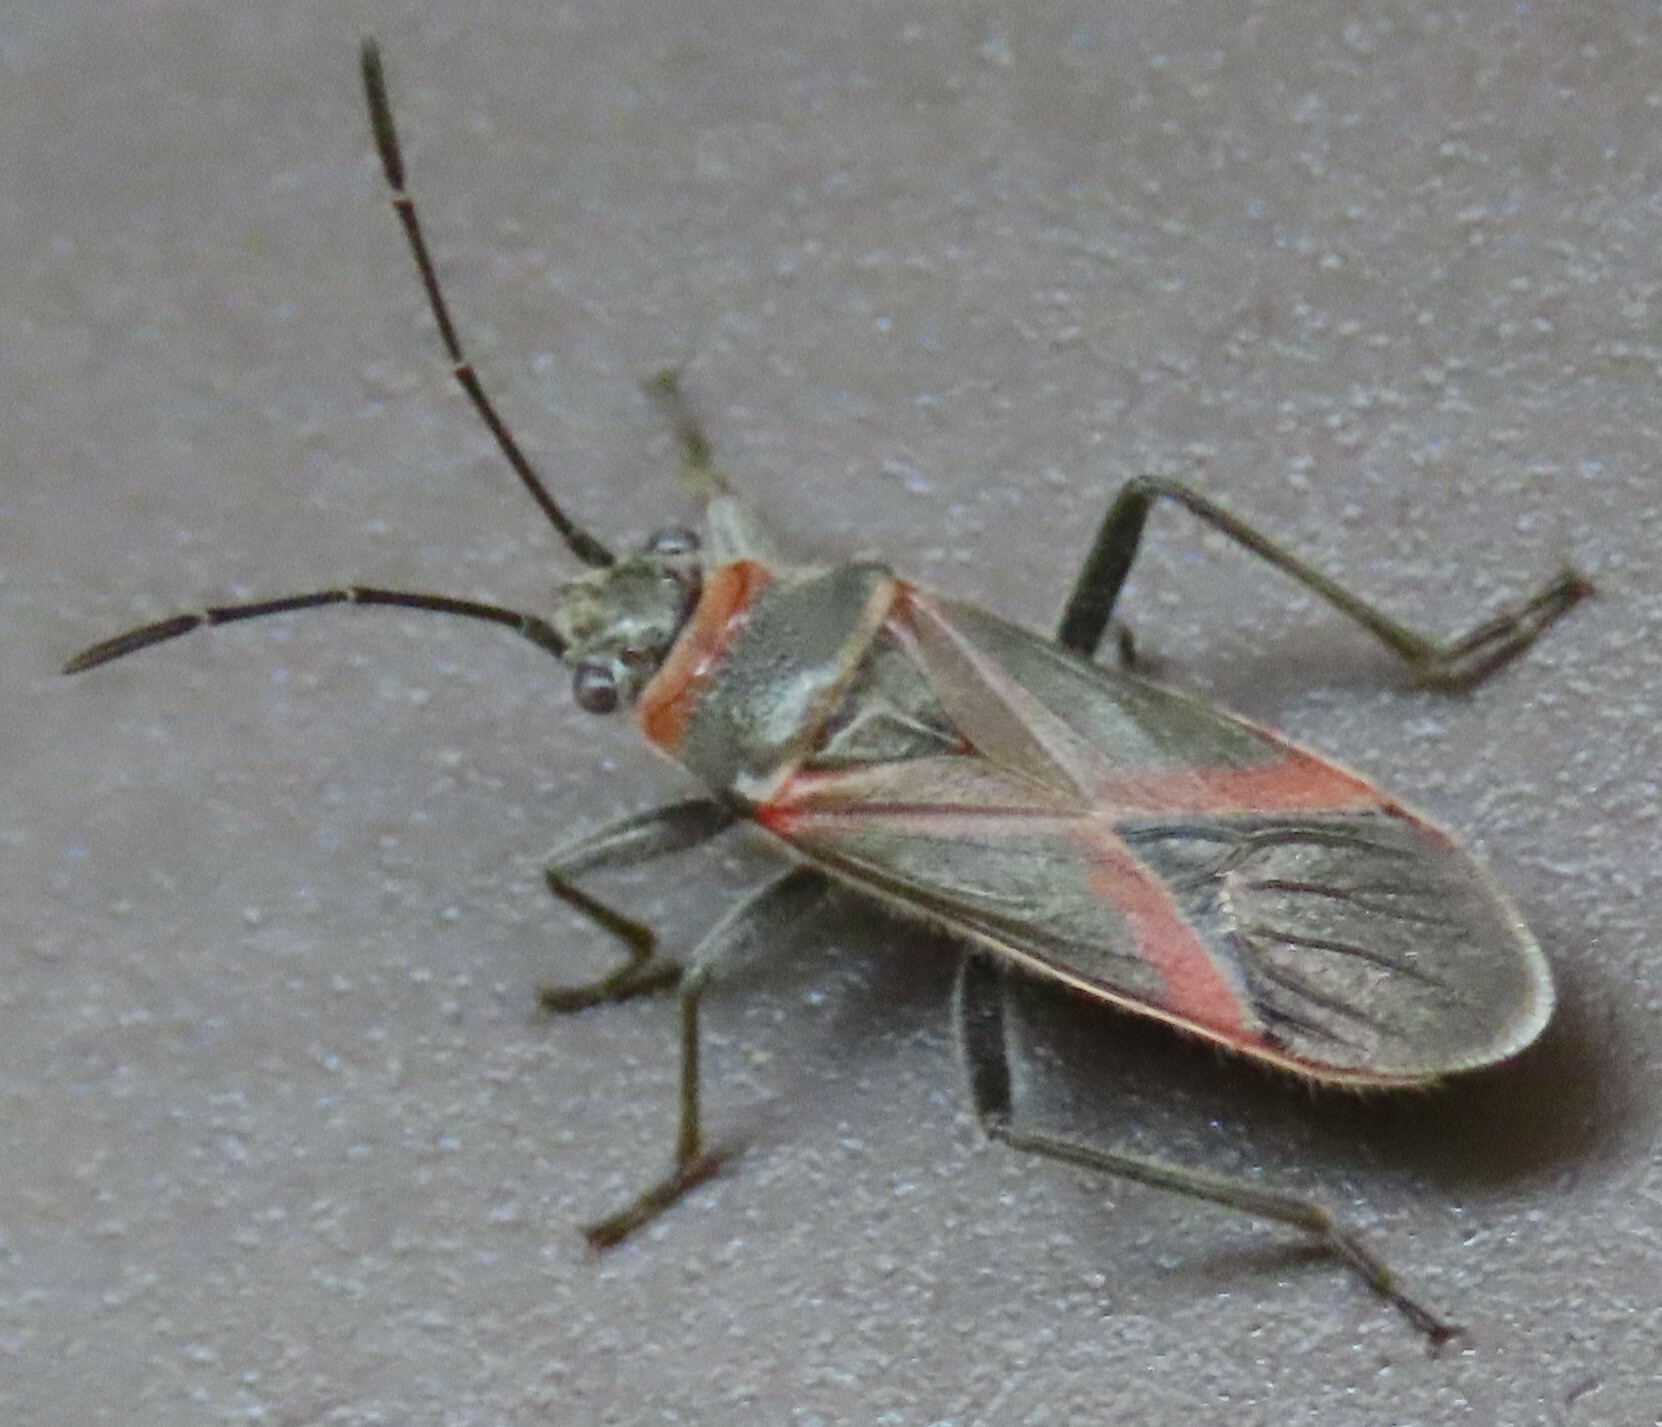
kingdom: Animalia
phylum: Arthropoda
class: Insecta
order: Hemiptera
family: Lygaeidae
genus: Arocatus
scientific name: Arocatus rusticus
